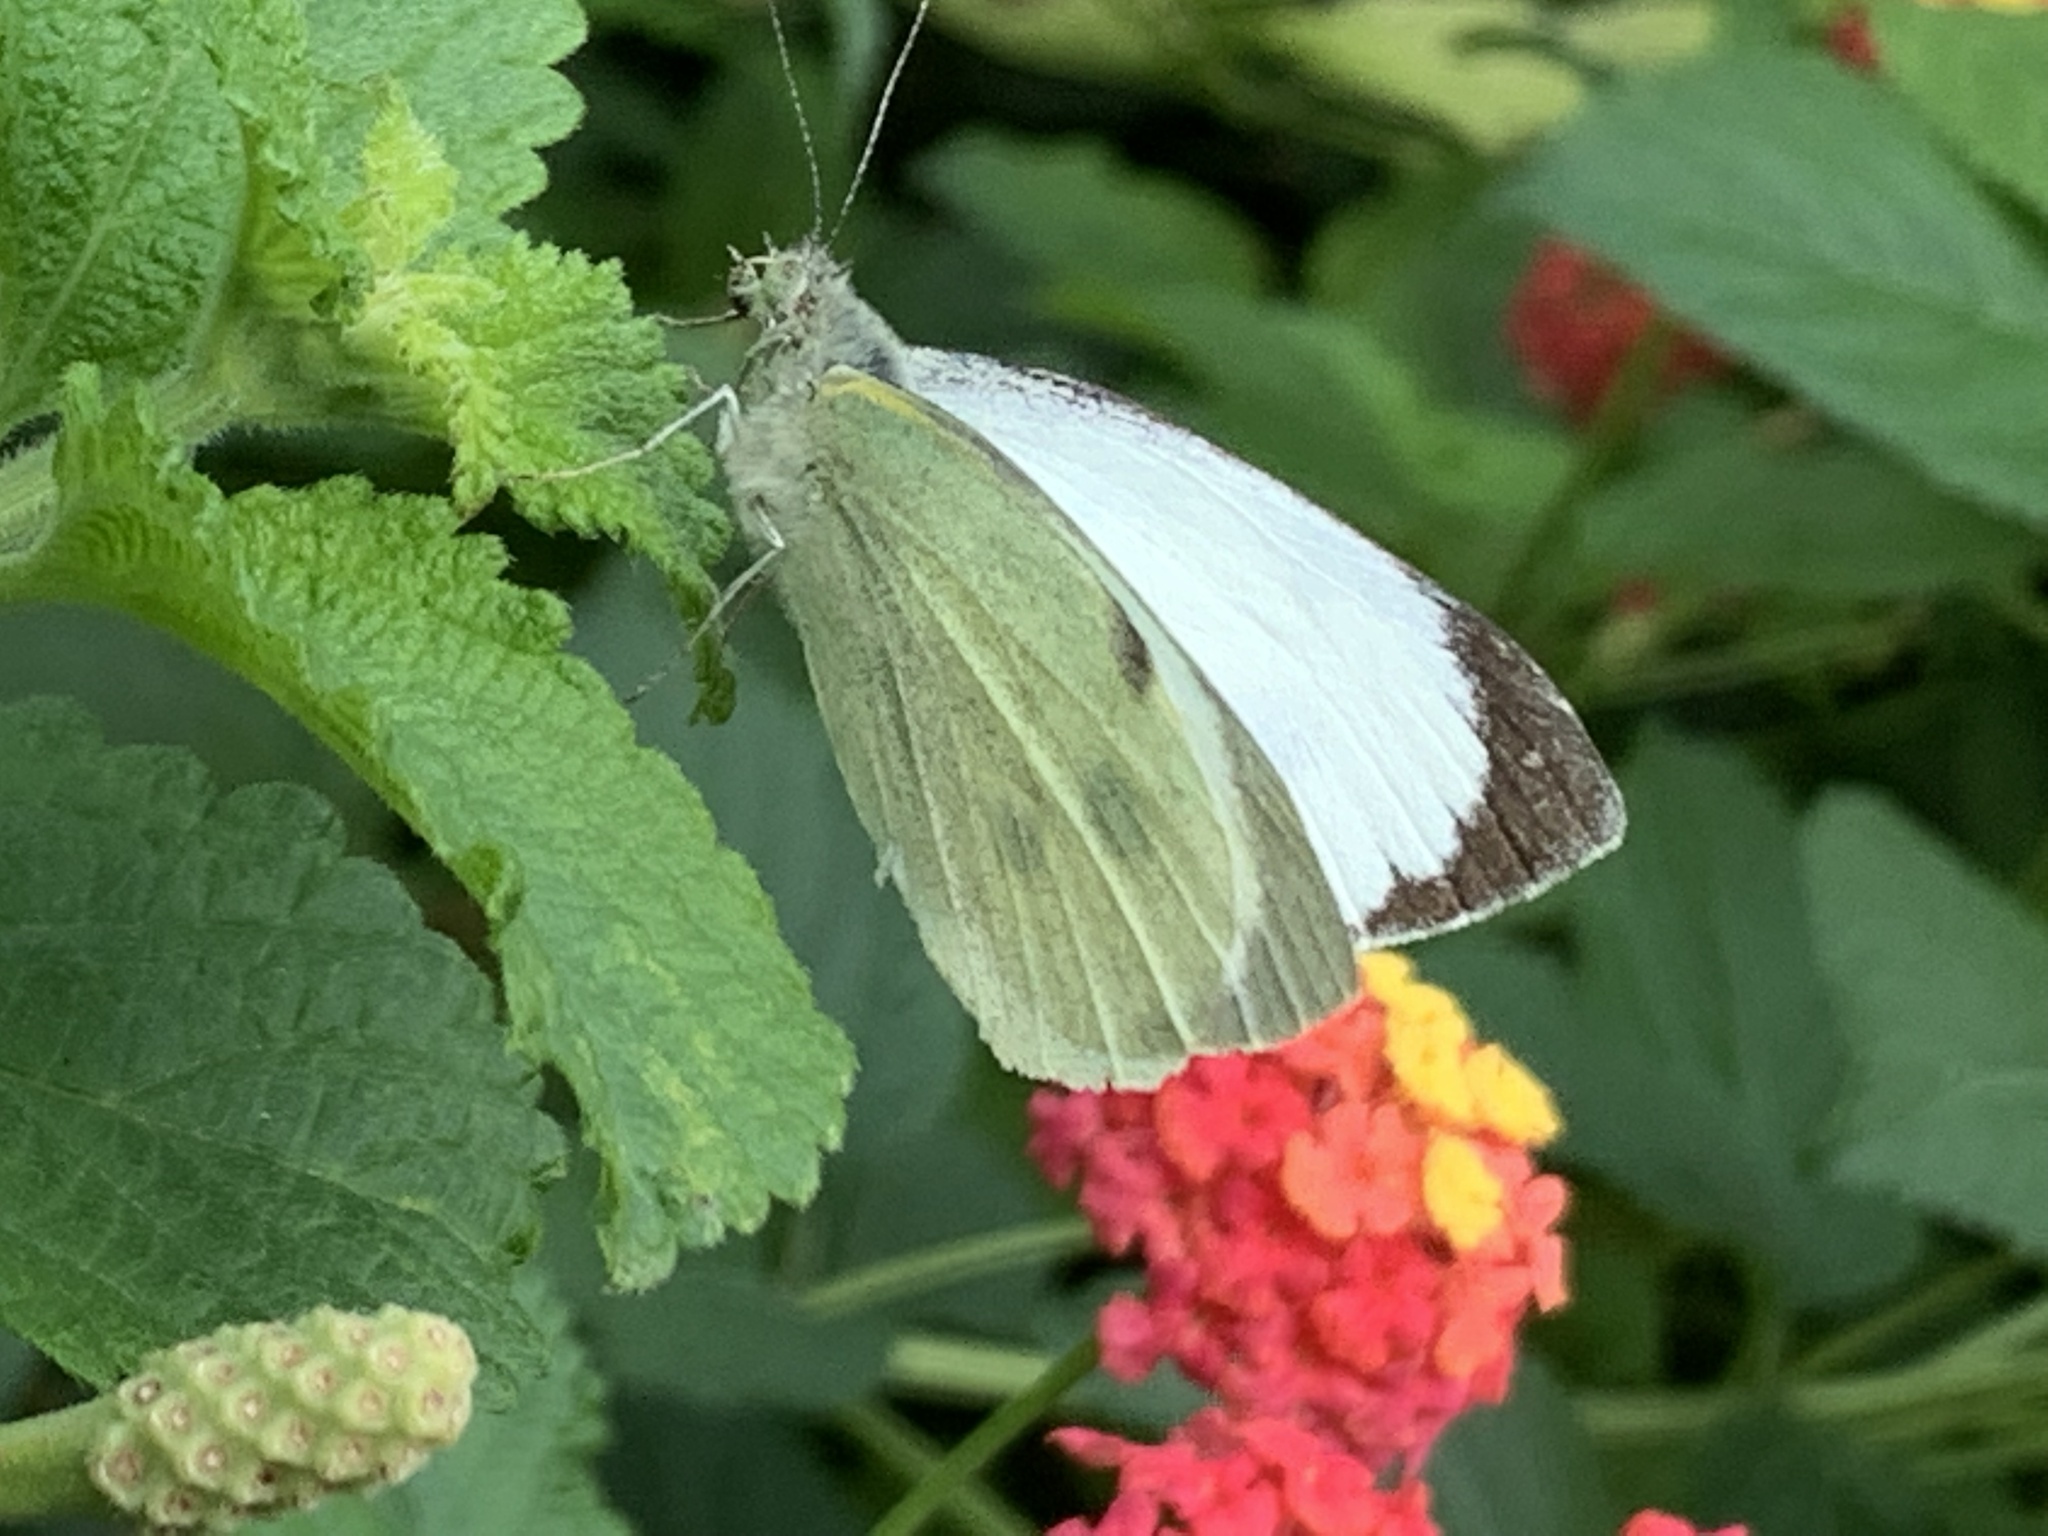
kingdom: Animalia
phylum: Arthropoda
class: Insecta
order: Lepidoptera
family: Pieridae
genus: Pieris
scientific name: Pieris brassicae
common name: Large white
